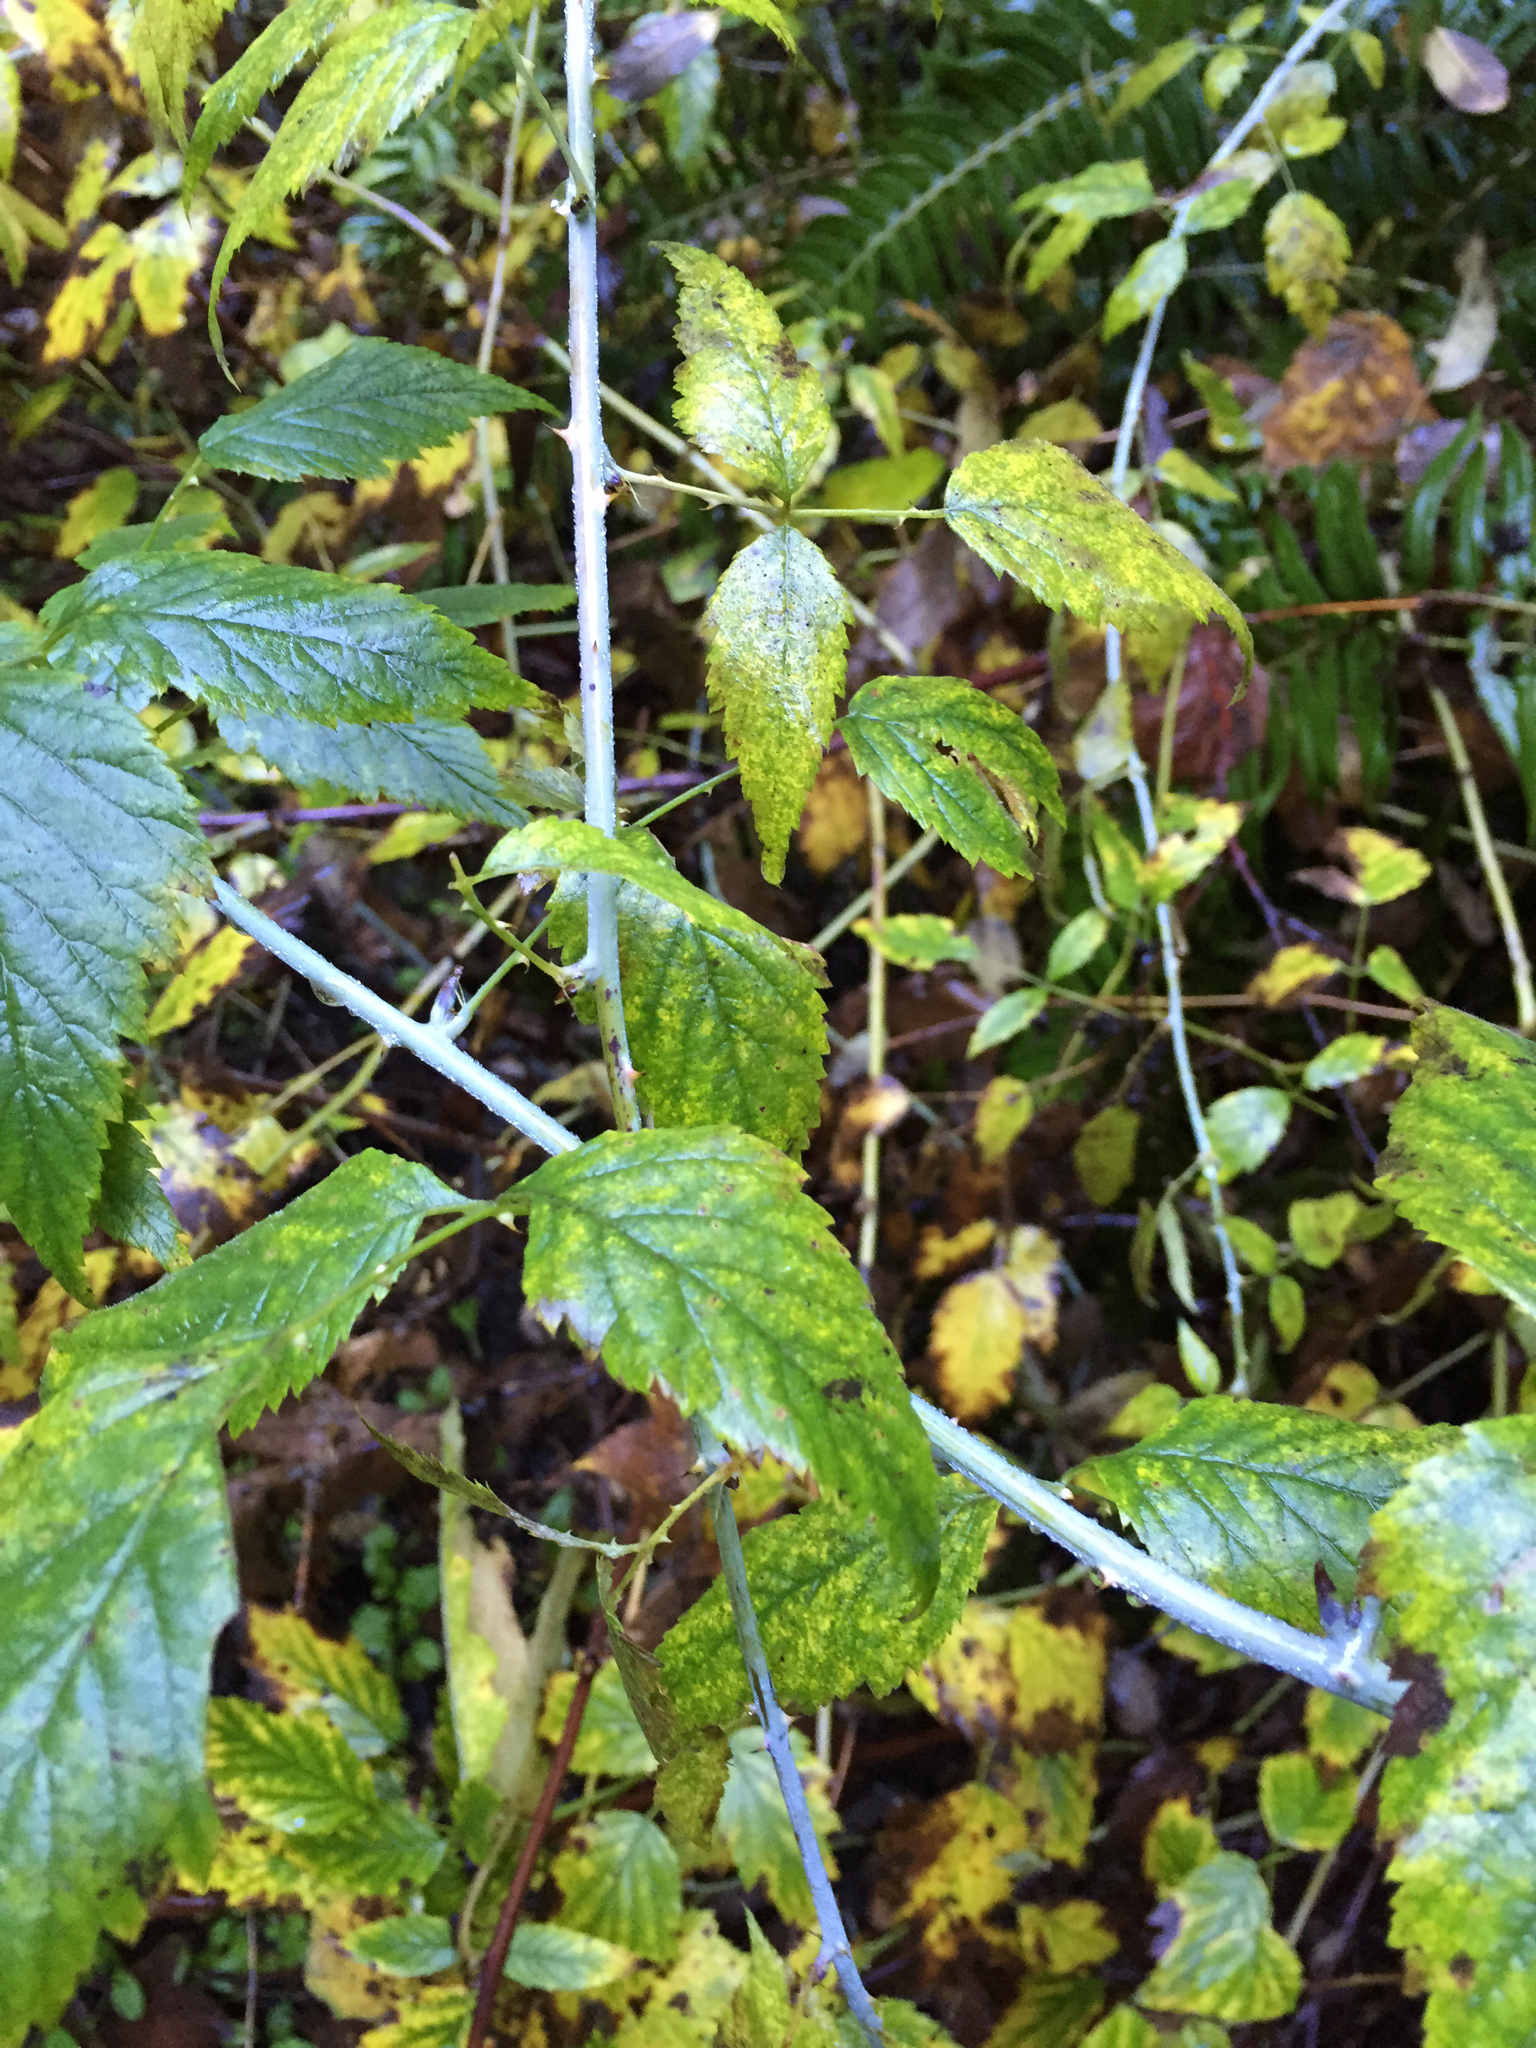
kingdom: Plantae
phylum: Tracheophyta
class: Magnoliopsida
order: Rosales
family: Rosaceae
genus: Rubus
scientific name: Rubus leucodermis
